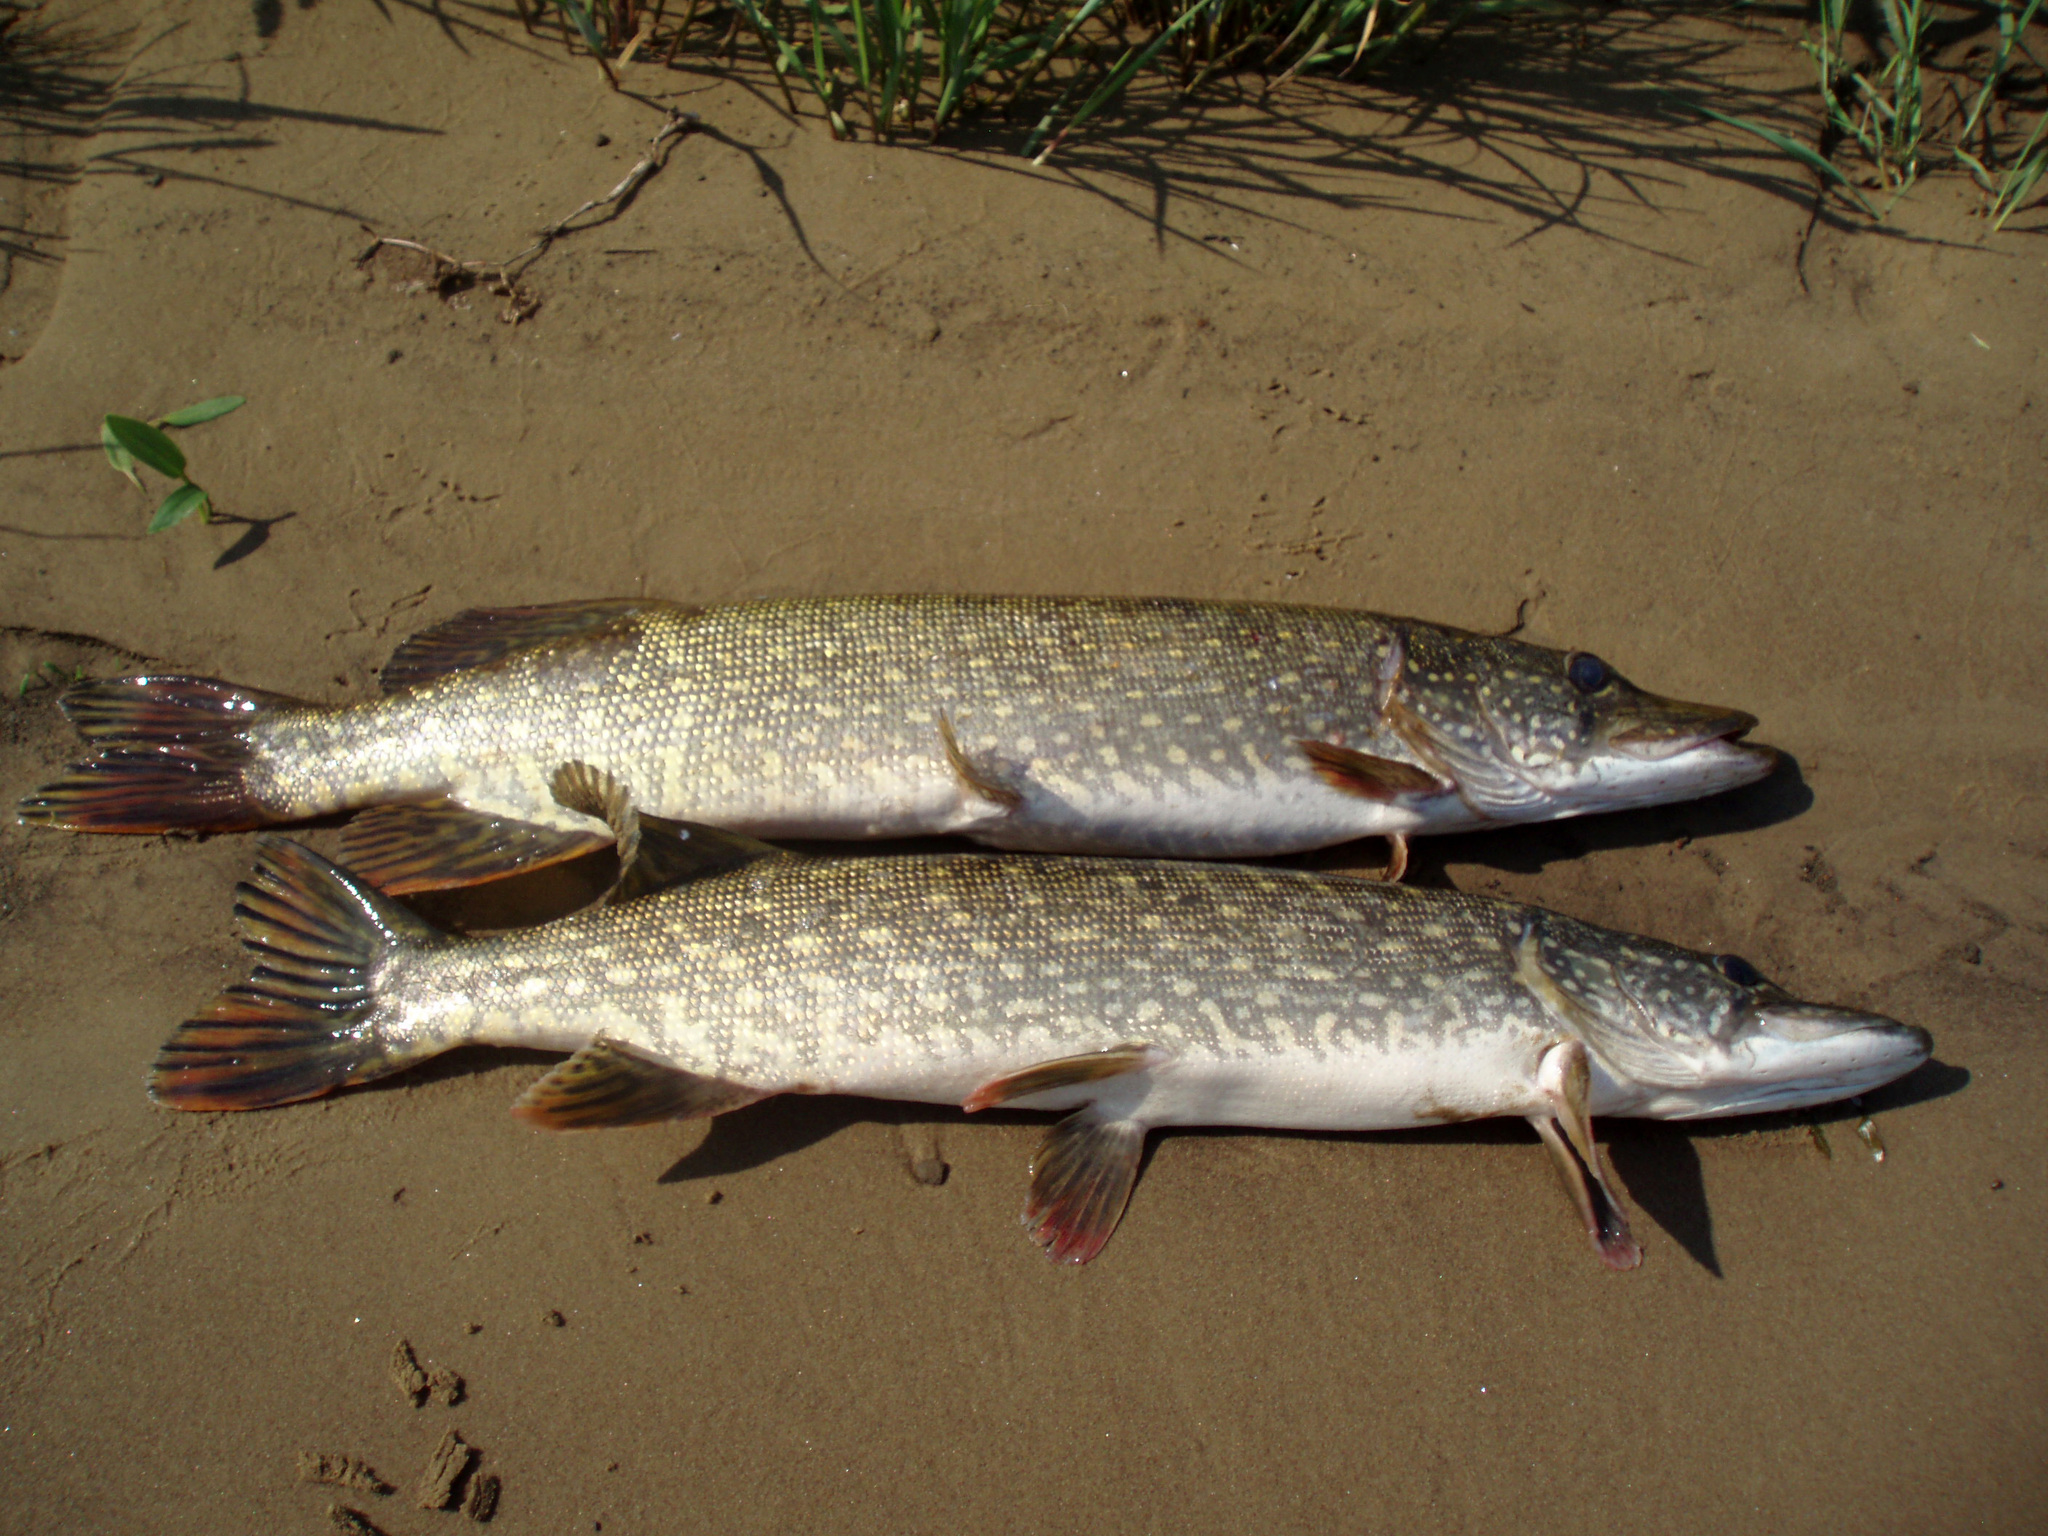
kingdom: Animalia
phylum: Chordata
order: Esociformes
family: Esocidae
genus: Esox
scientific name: Esox lucius
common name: Northern pike
